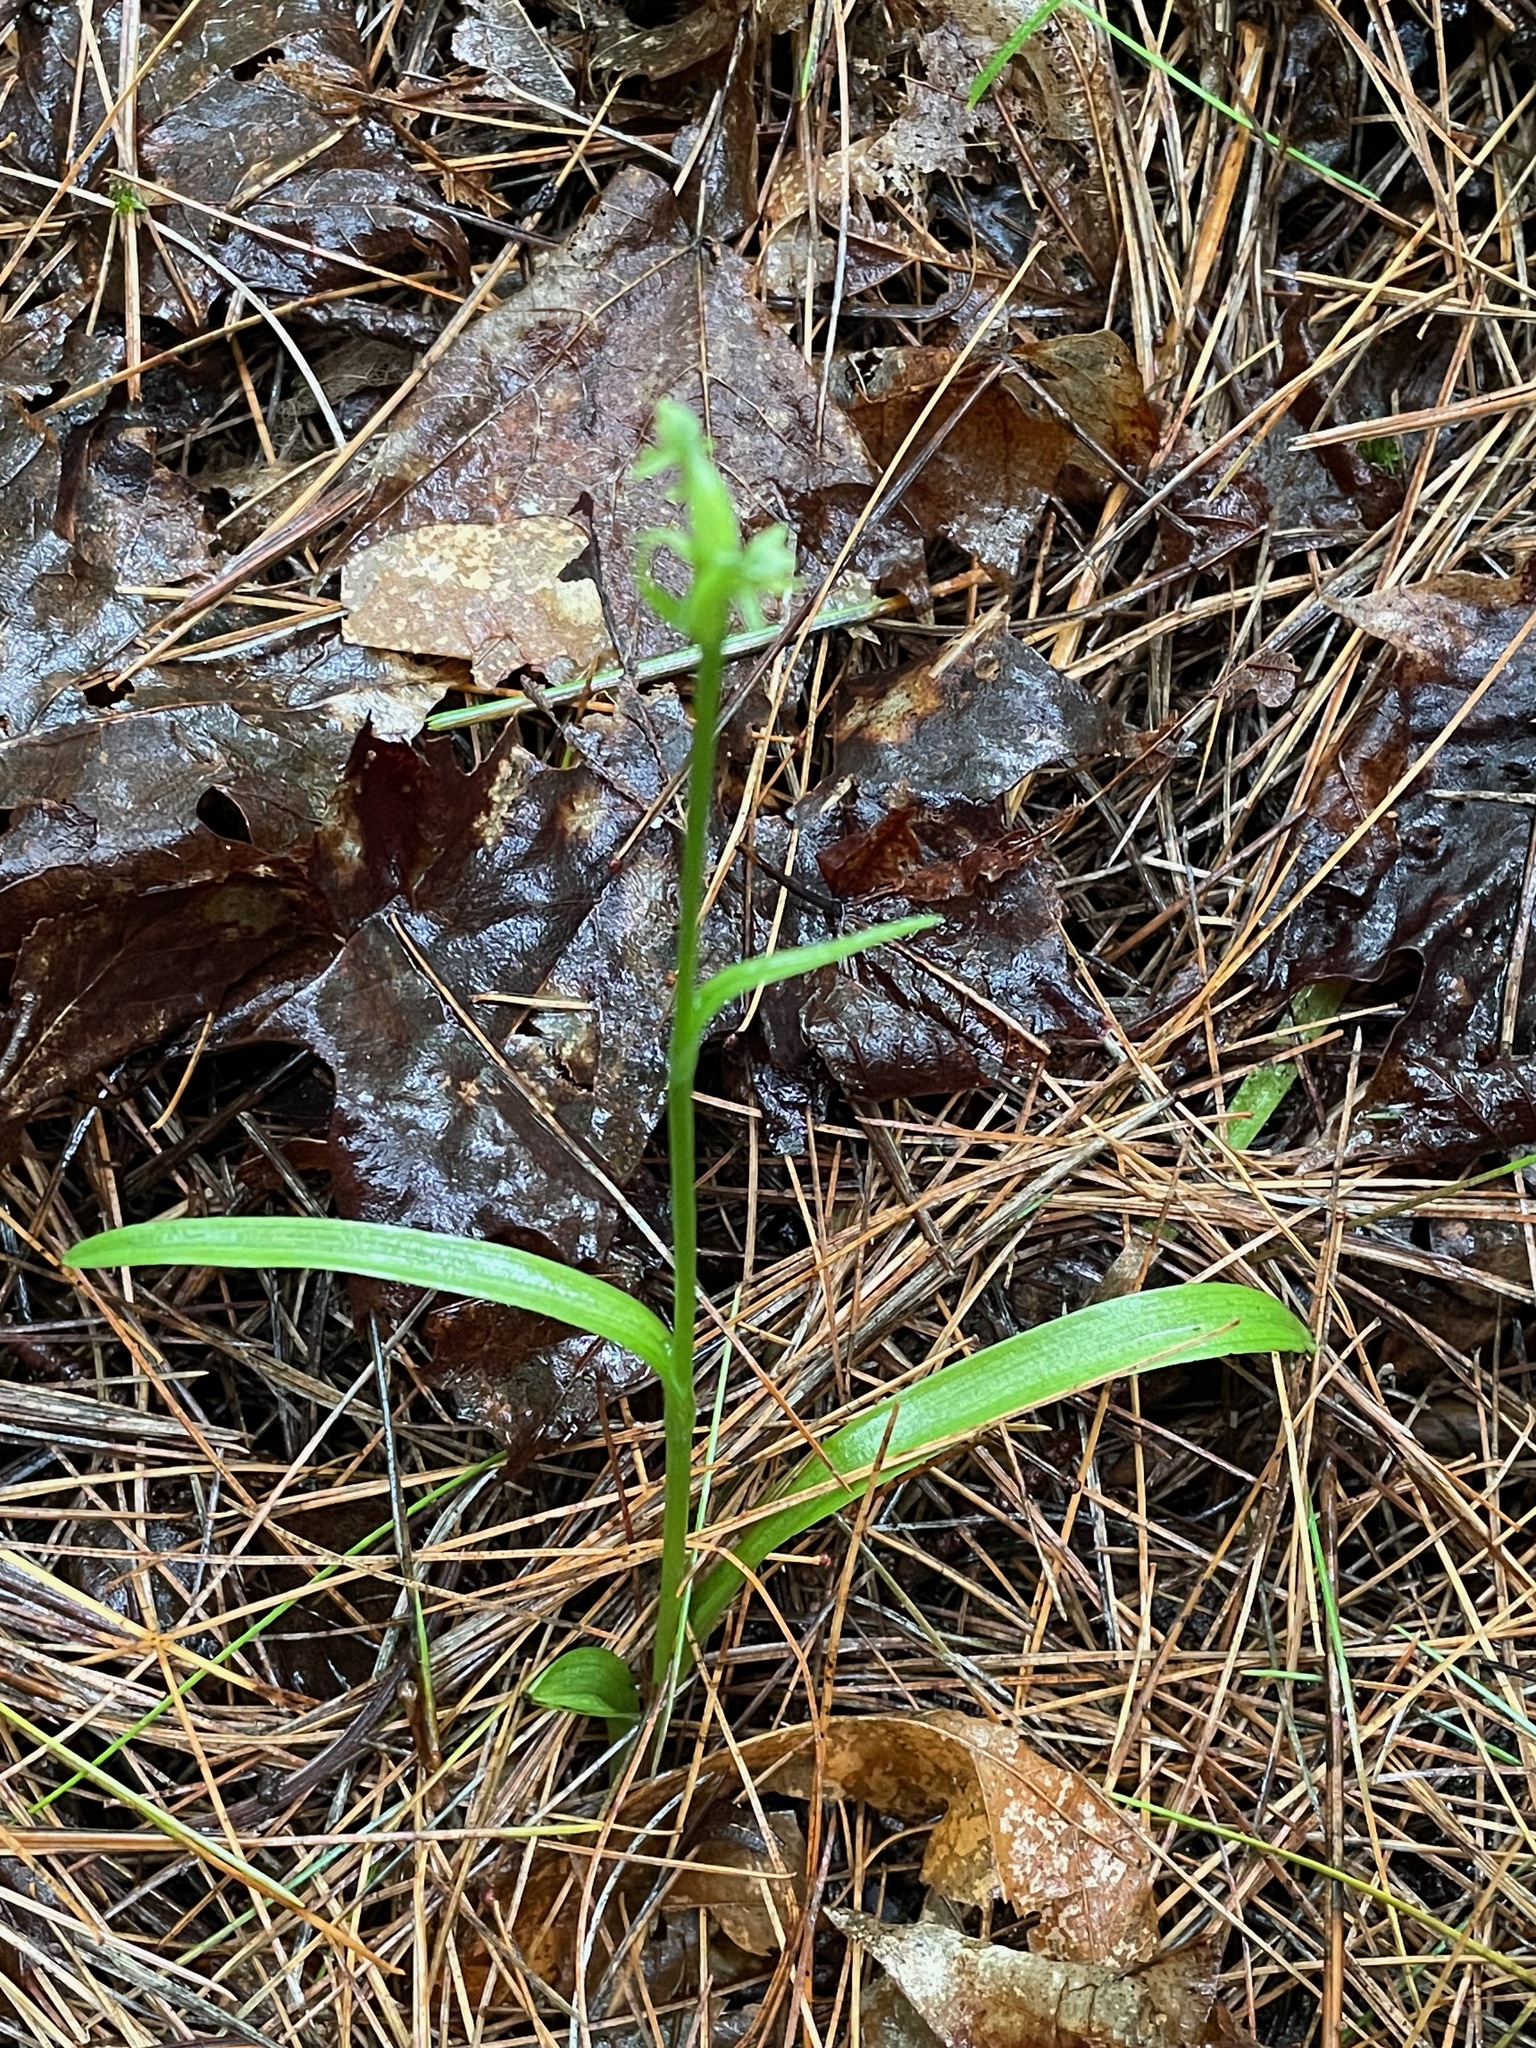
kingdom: Plantae
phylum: Tracheophyta
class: Liliopsida
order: Asparagales
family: Orchidaceae
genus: Platanthera
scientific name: Platanthera aquilonis
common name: Northern green orchid
